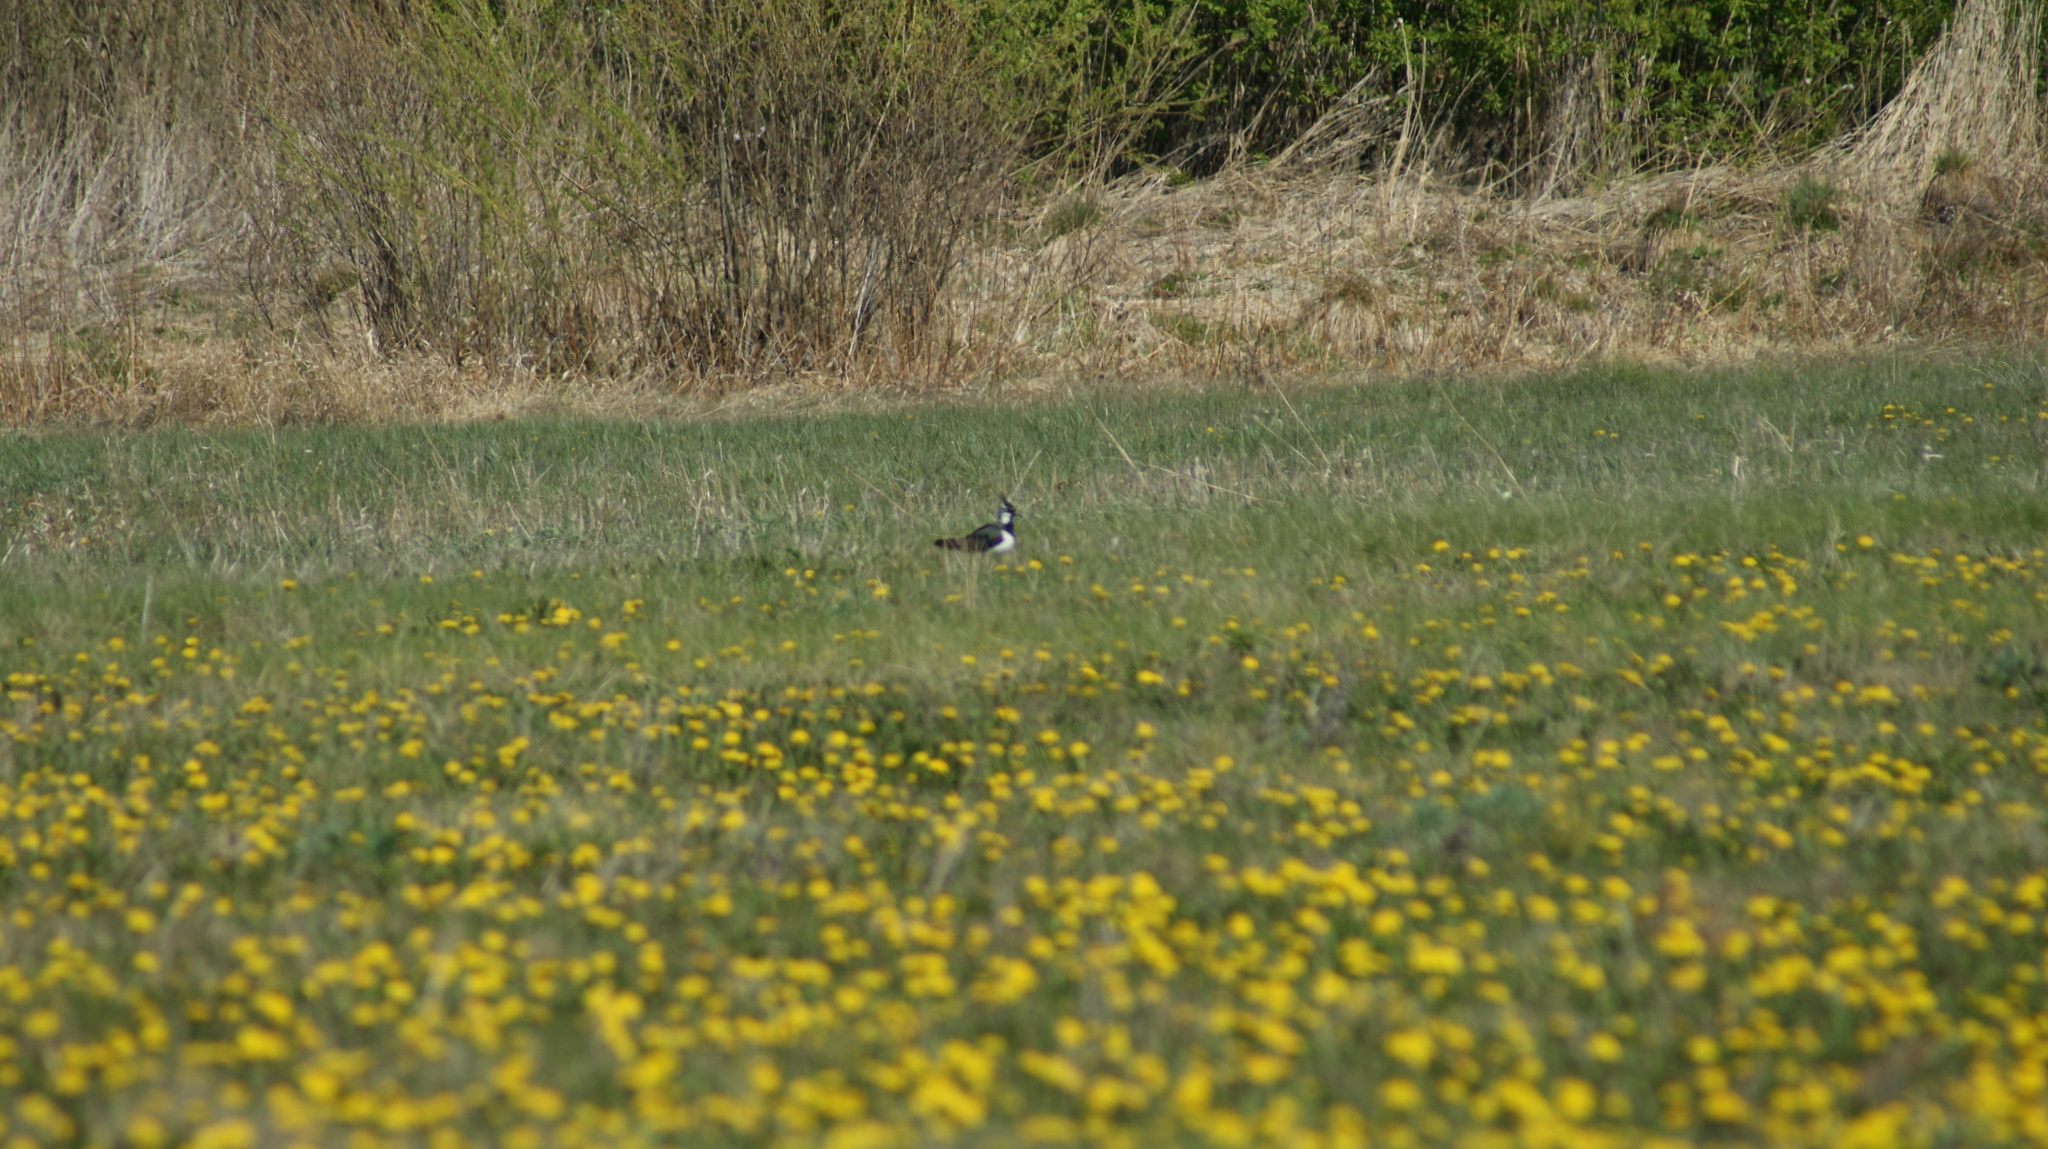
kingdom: Animalia
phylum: Chordata
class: Aves
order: Charadriiformes
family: Charadriidae
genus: Vanellus
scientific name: Vanellus vanellus
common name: Northern lapwing
